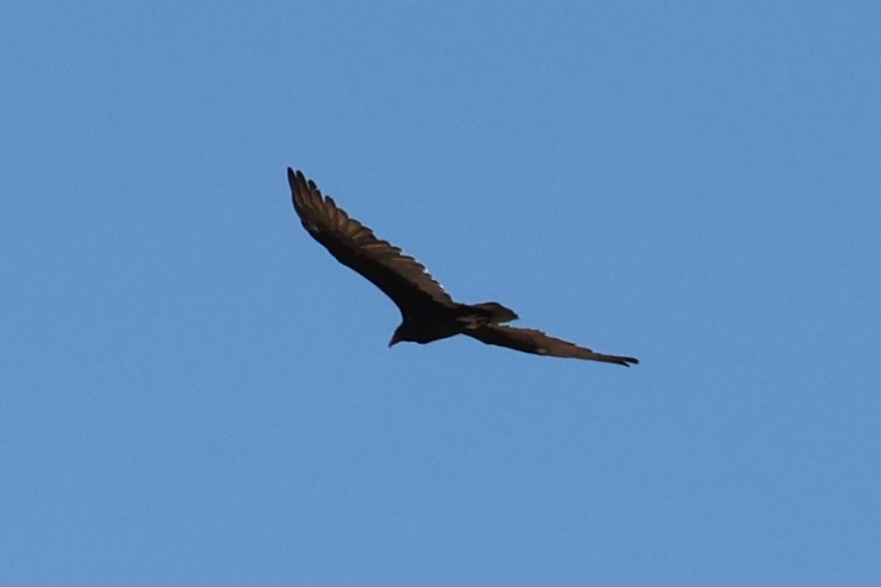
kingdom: Animalia
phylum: Chordata
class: Aves
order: Accipitriformes
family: Cathartidae
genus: Cathartes
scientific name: Cathartes aura
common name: Turkey vulture
